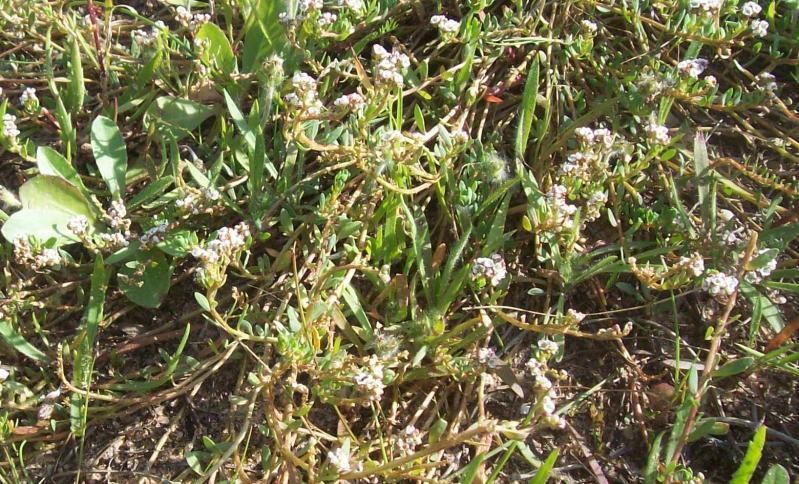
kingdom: Plantae
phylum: Tracheophyta
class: Magnoliopsida
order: Caryophyllales
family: Caryophyllaceae
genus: Corrigiola
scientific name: Corrigiola litoralis
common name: Strapwort
